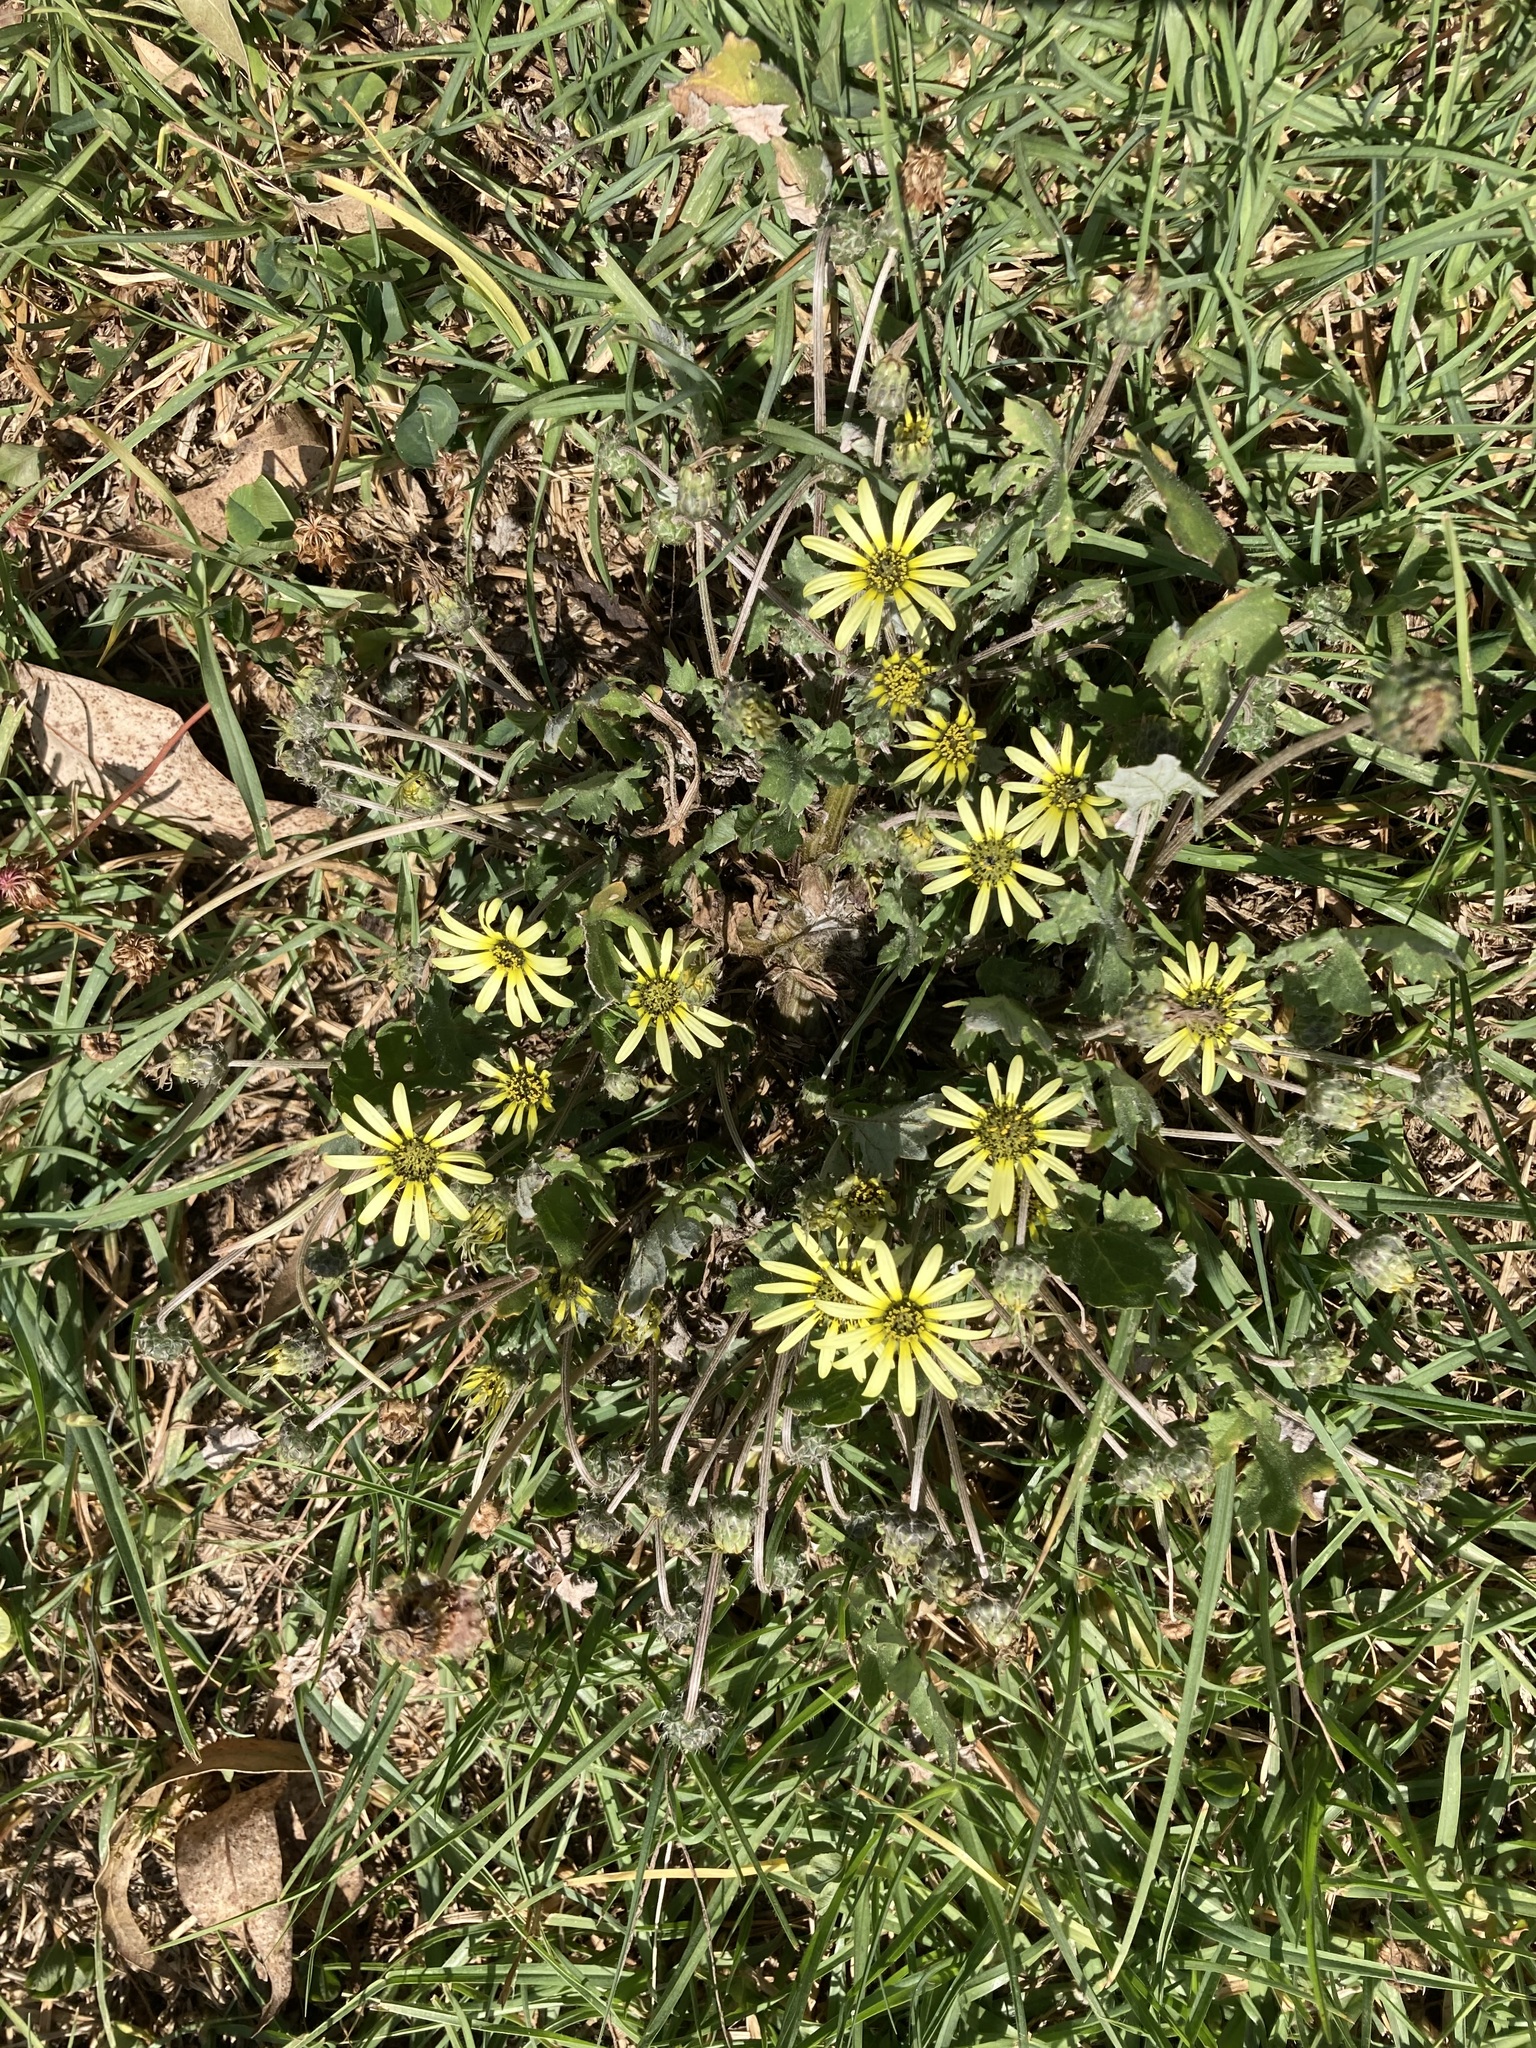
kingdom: Plantae
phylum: Tracheophyta
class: Magnoliopsida
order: Asterales
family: Asteraceae
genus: Arctotheca
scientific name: Arctotheca calendula
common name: Capeweed
